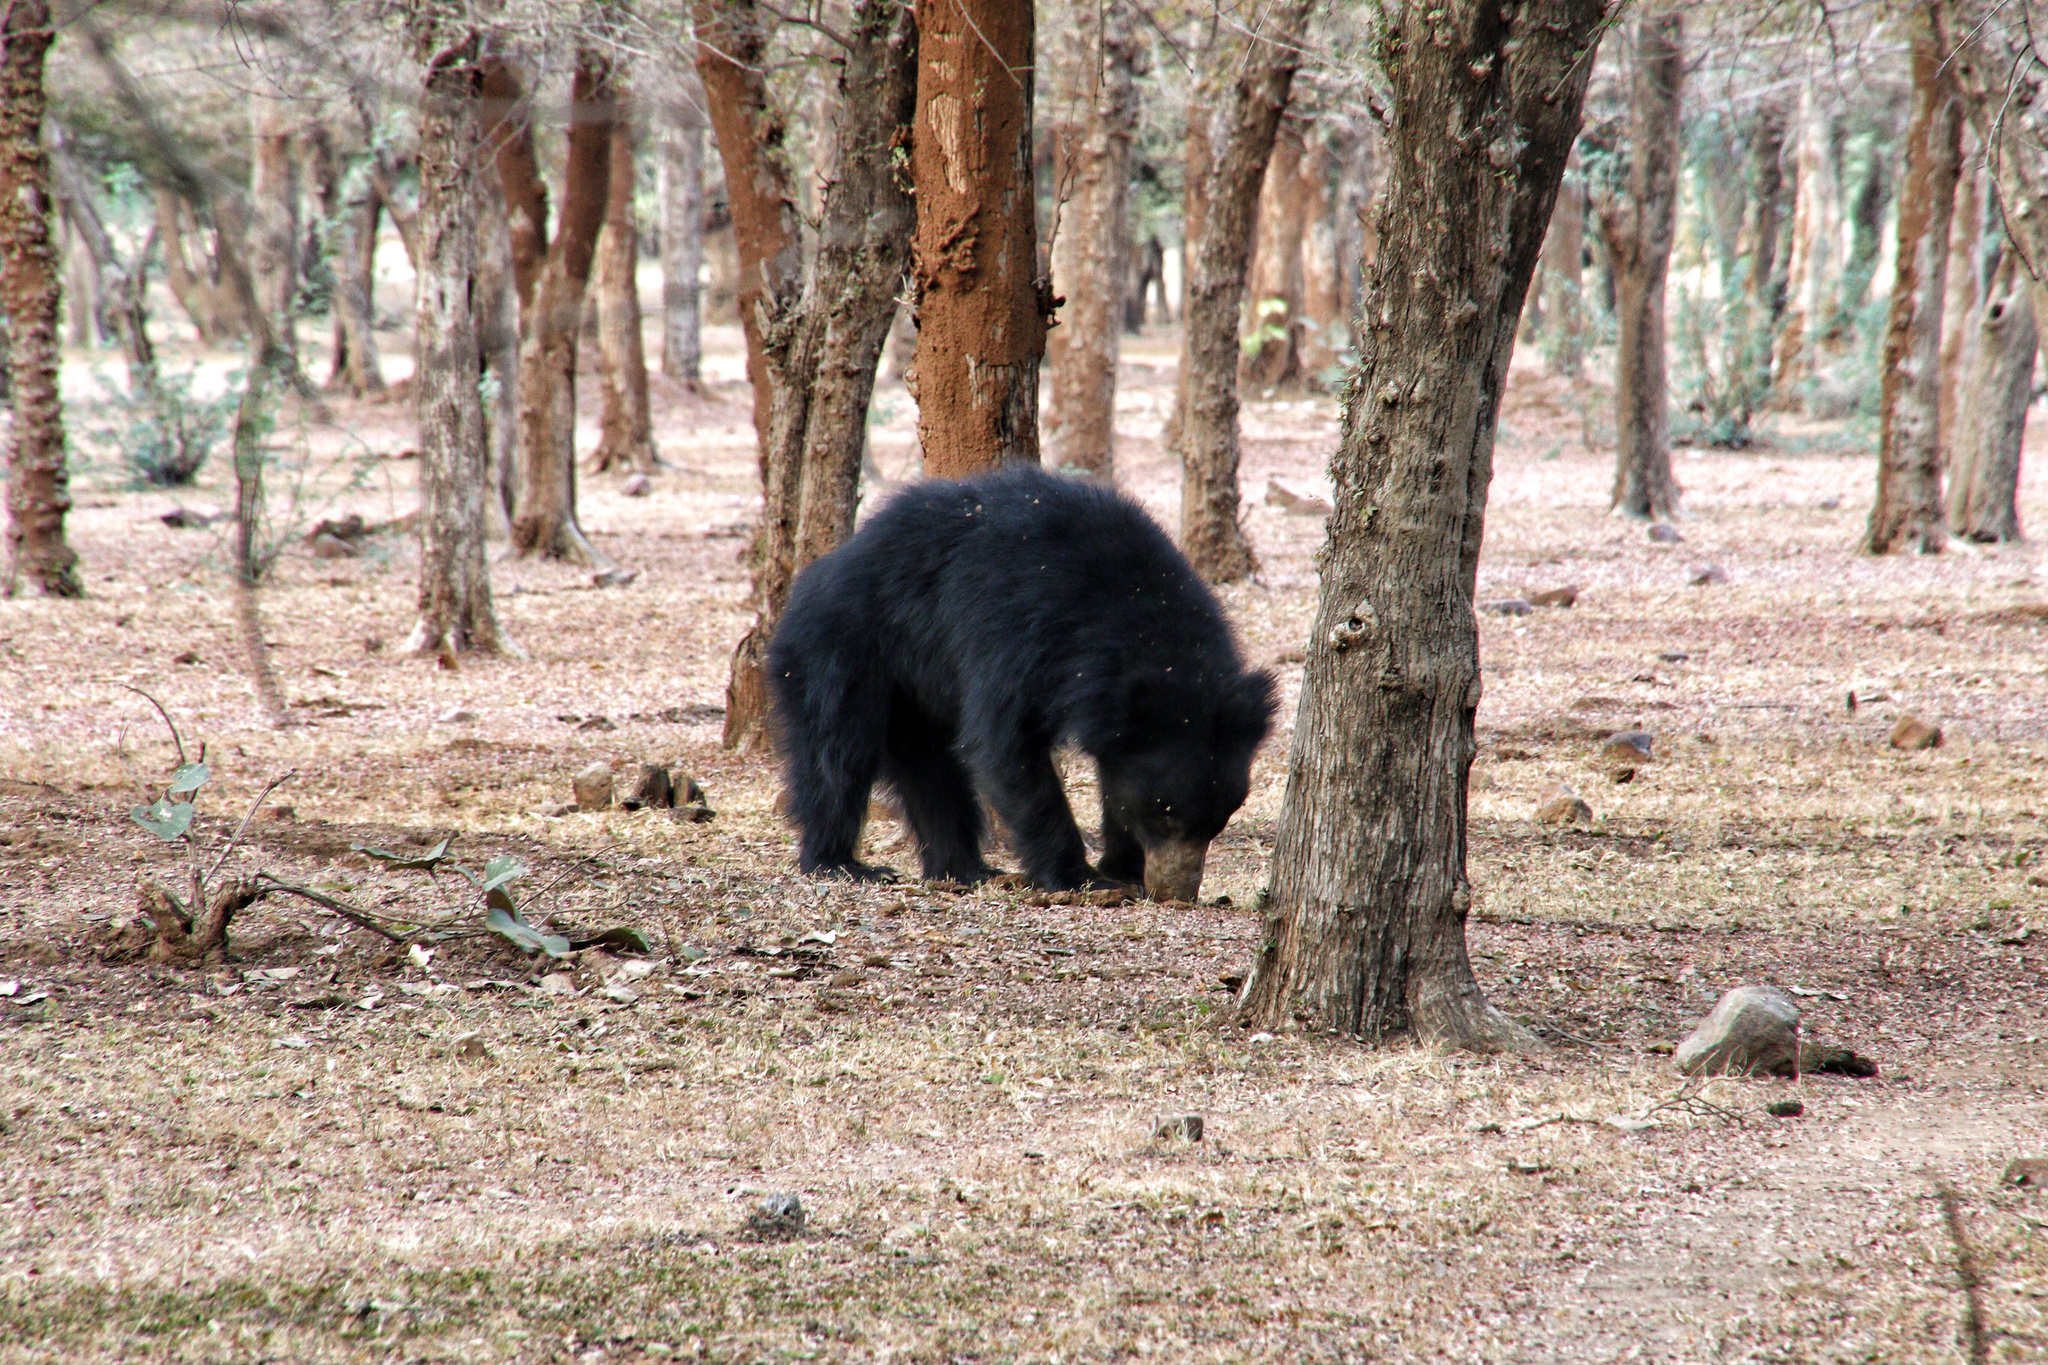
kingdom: Animalia
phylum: Chordata
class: Mammalia
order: Carnivora
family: Ursidae
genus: Melursus
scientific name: Melursus ursinus
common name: Sloth bear
